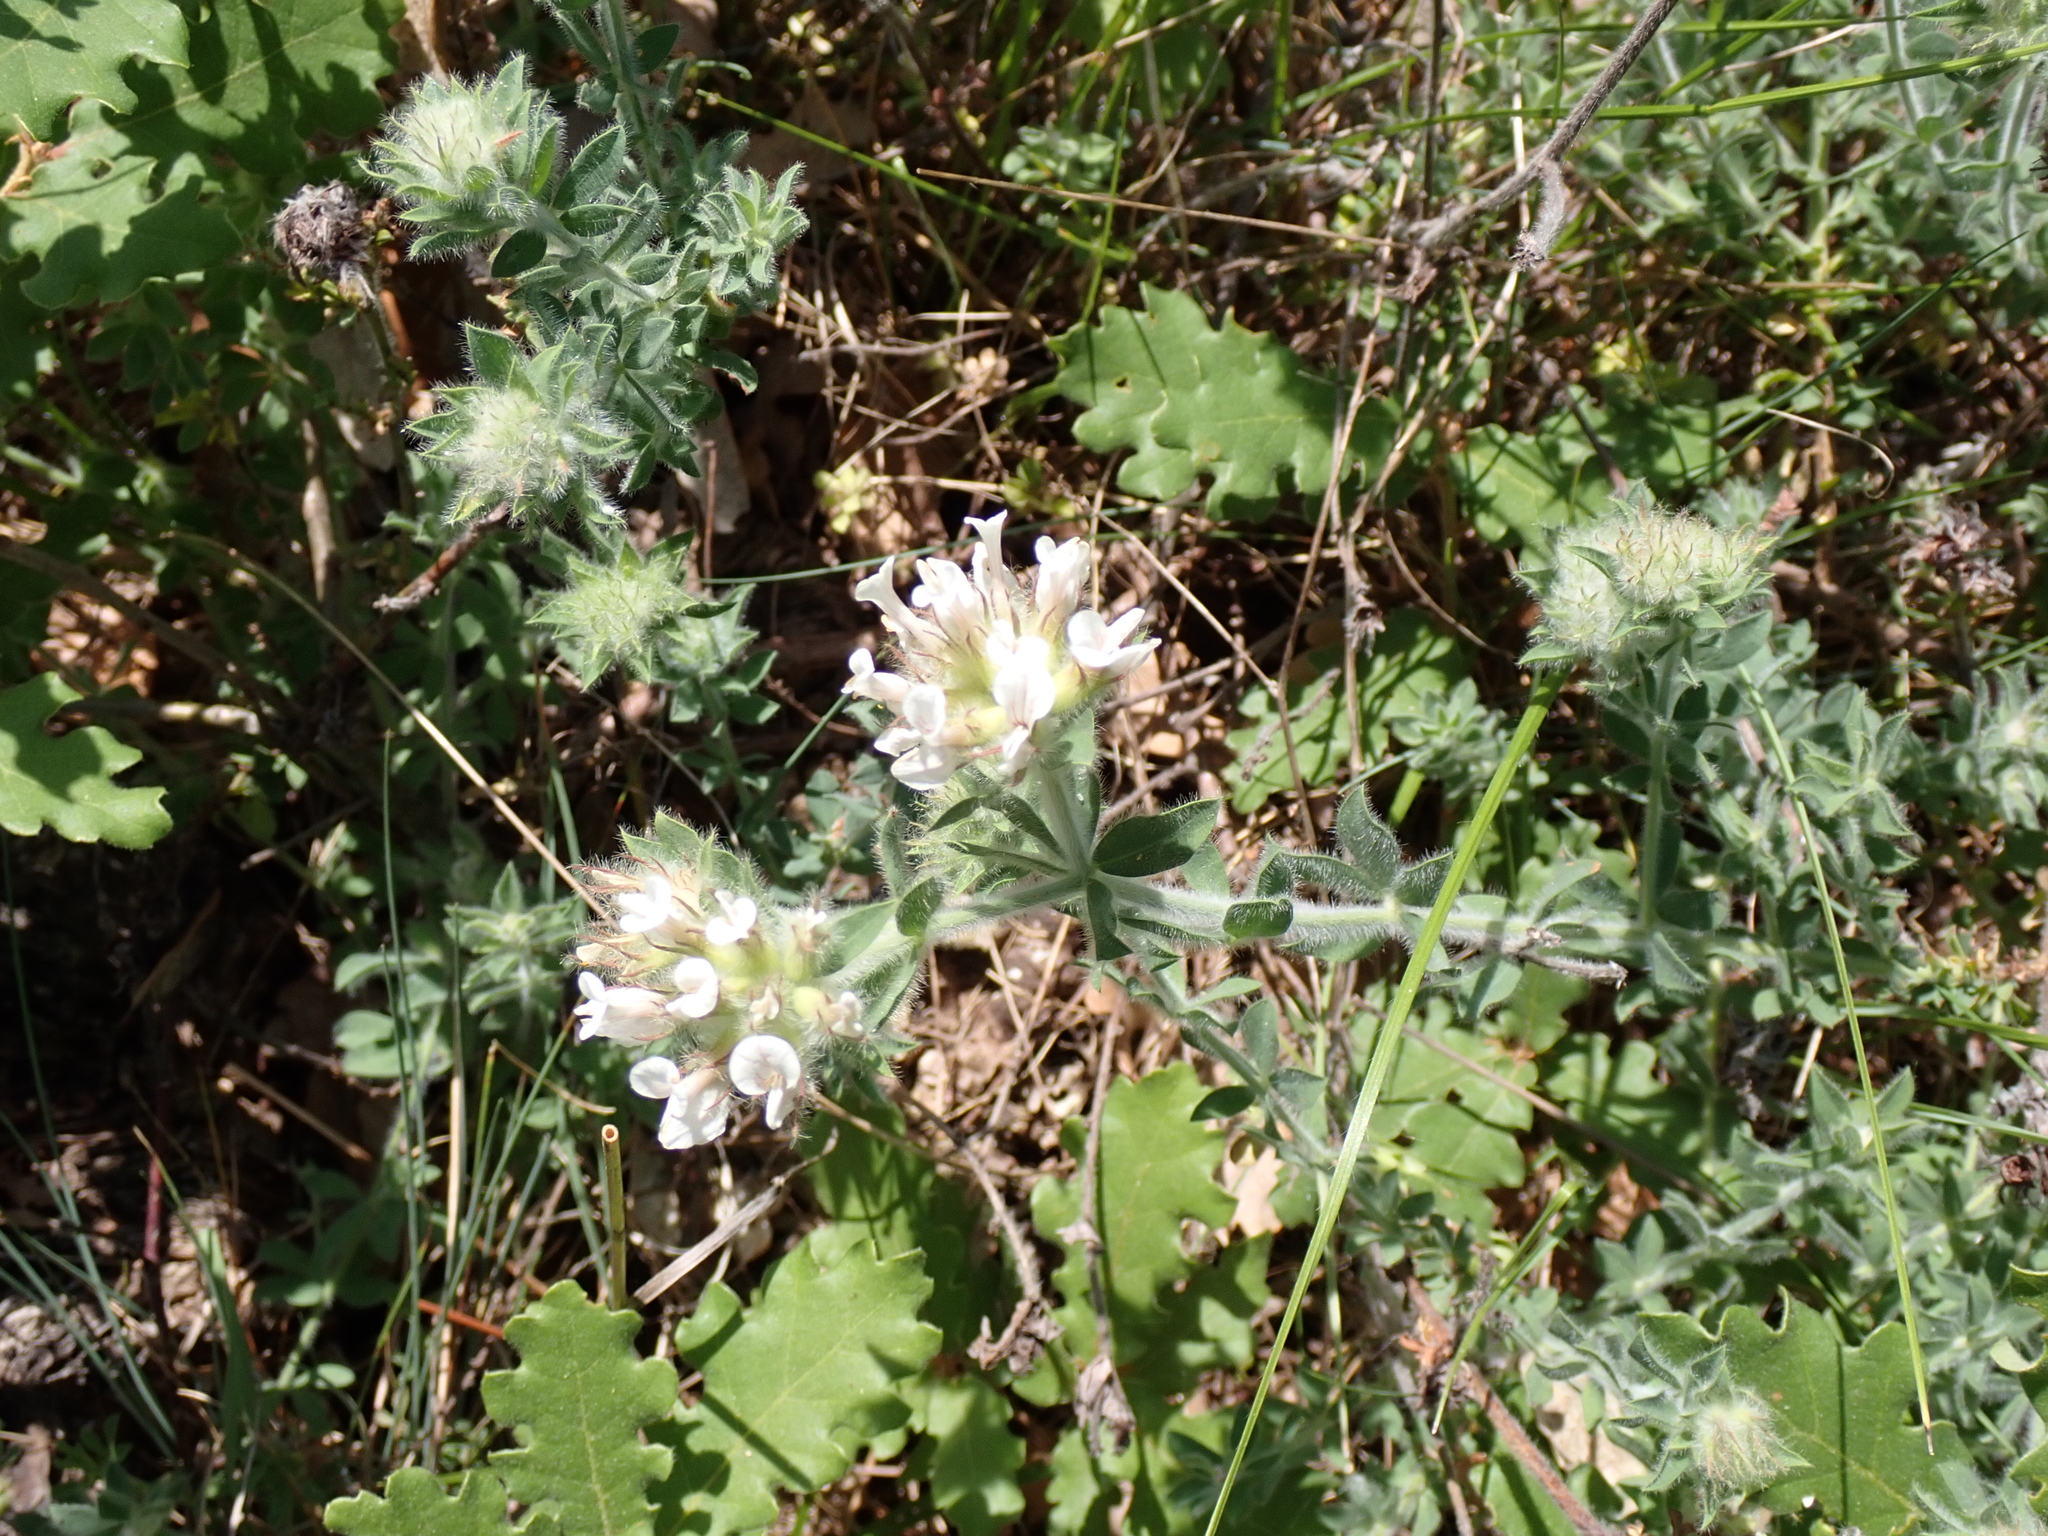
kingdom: Plantae
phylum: Tracheophyta
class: Magnoliopsida
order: Fabales
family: Fabaceae
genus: Lotus
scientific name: Lotus hirsutus
